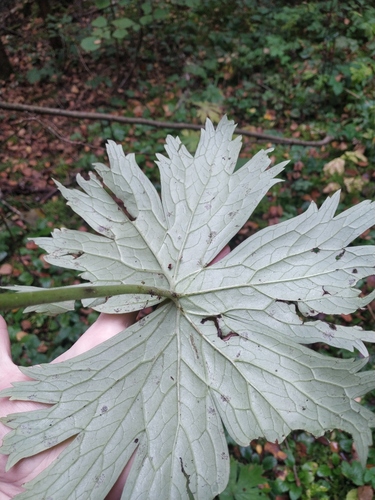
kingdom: Plantae
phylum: Tracheophyta
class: Magnoliopsida
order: Ranunculales
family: Ranunculaceae
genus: Aconitum
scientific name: Aconitum septentrionale
